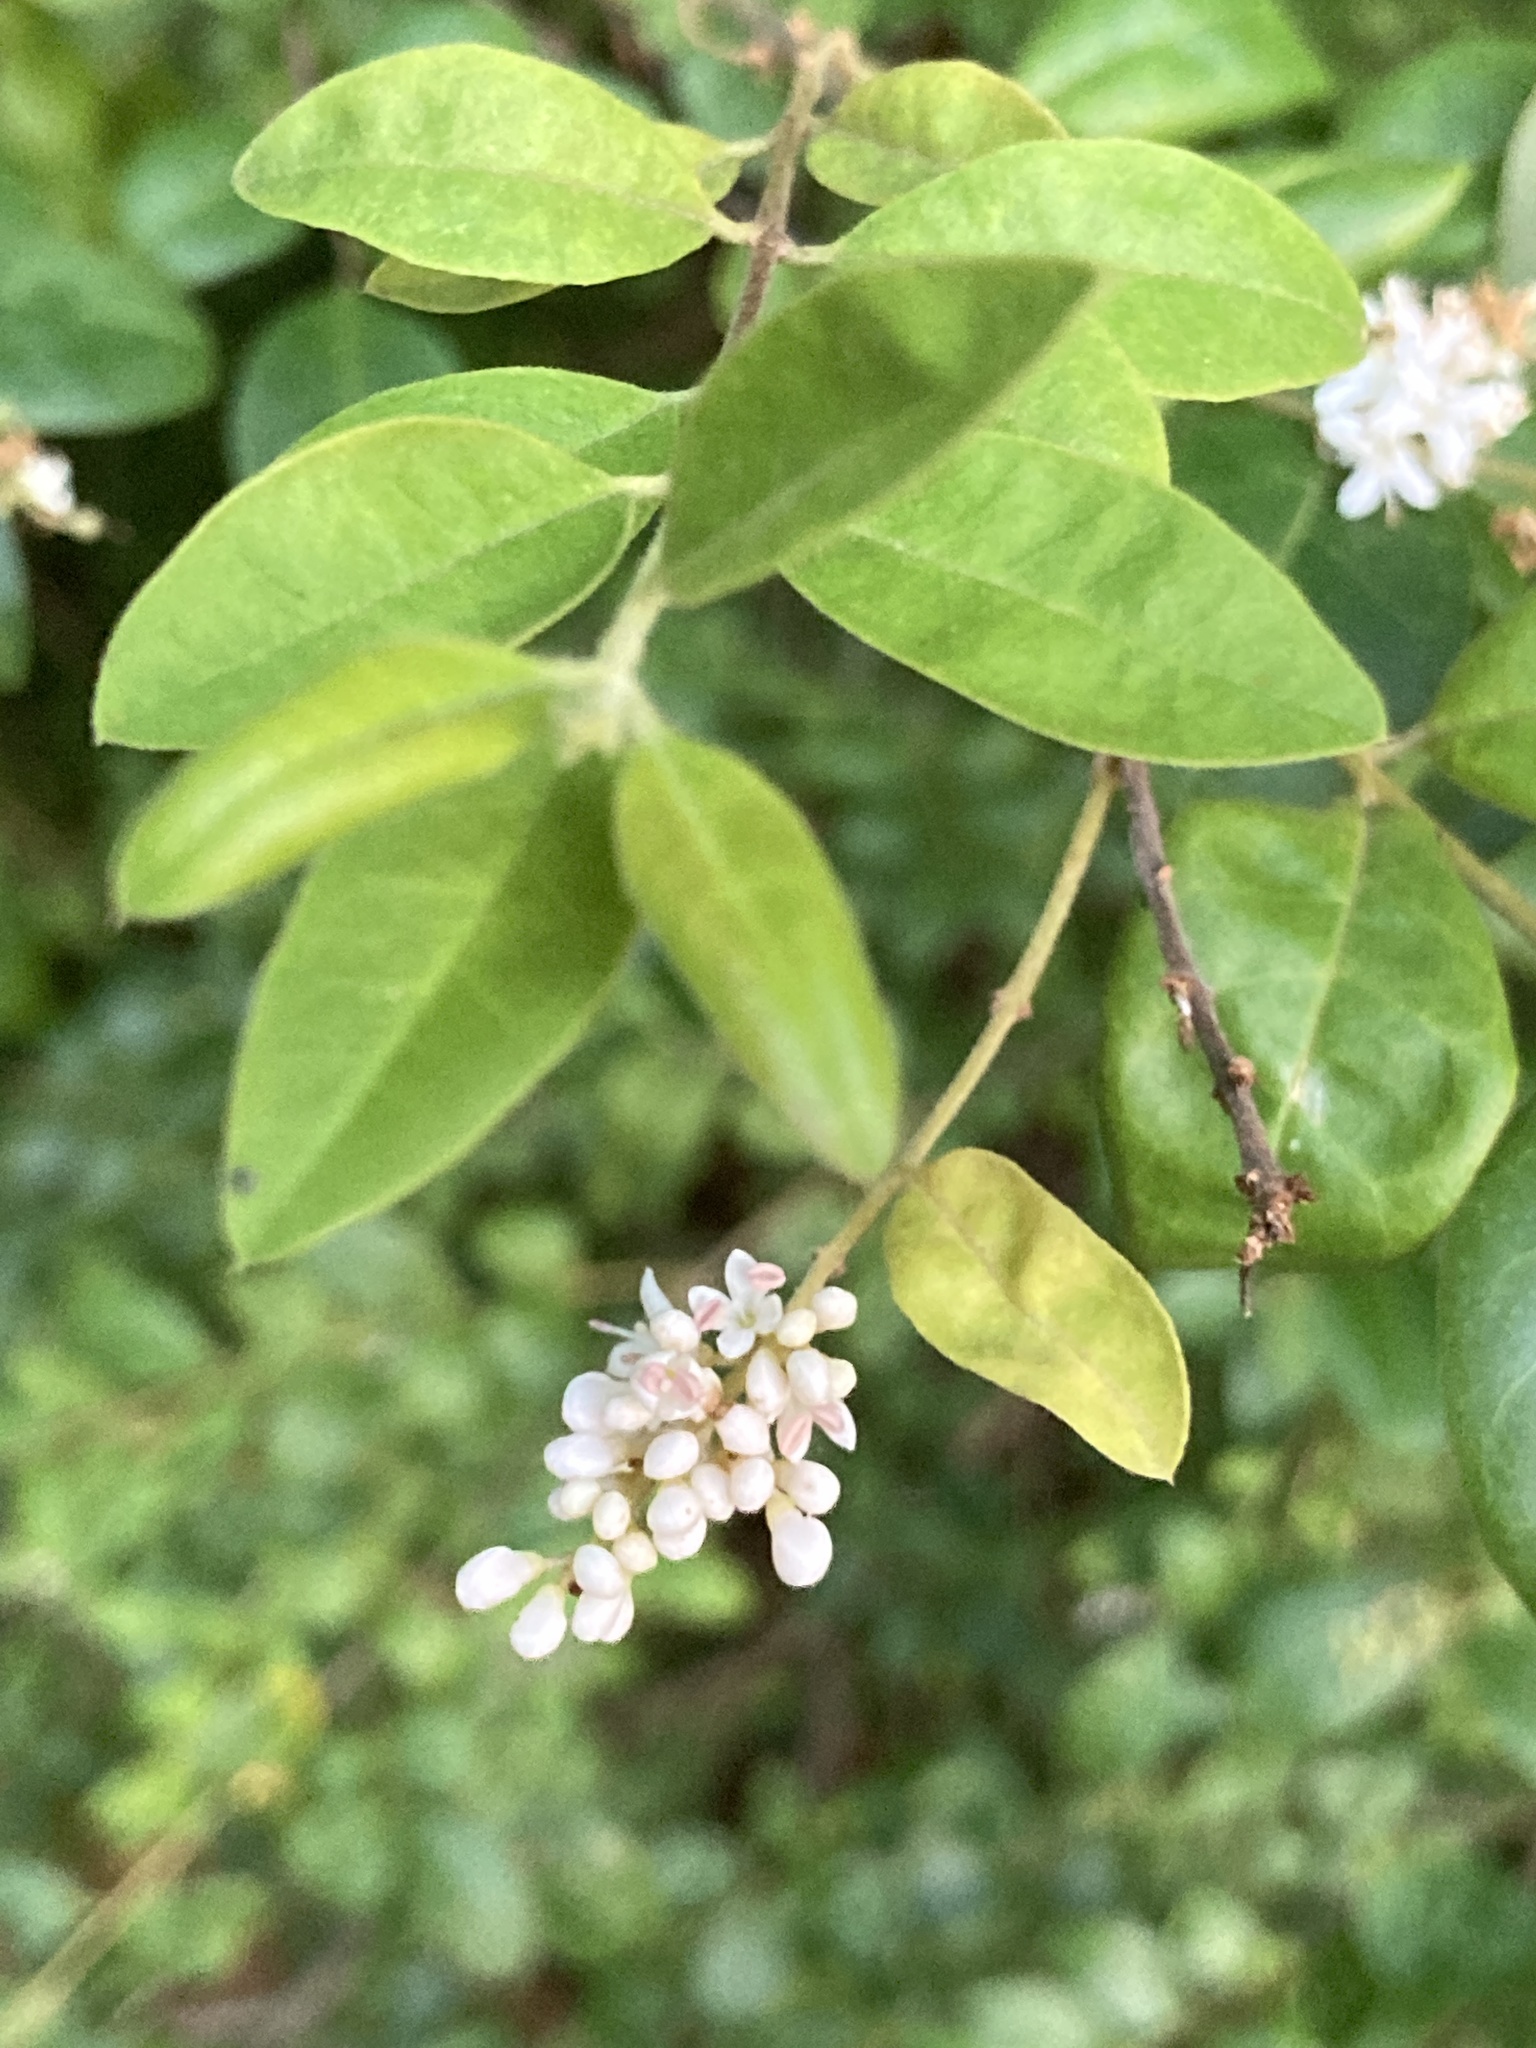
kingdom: Plantae
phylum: Tracheophyta
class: Magnoliopsida
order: Lamiales
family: Oleaceae
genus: Ligustrum
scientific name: Ligustrum sinense
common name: Chinese privet
